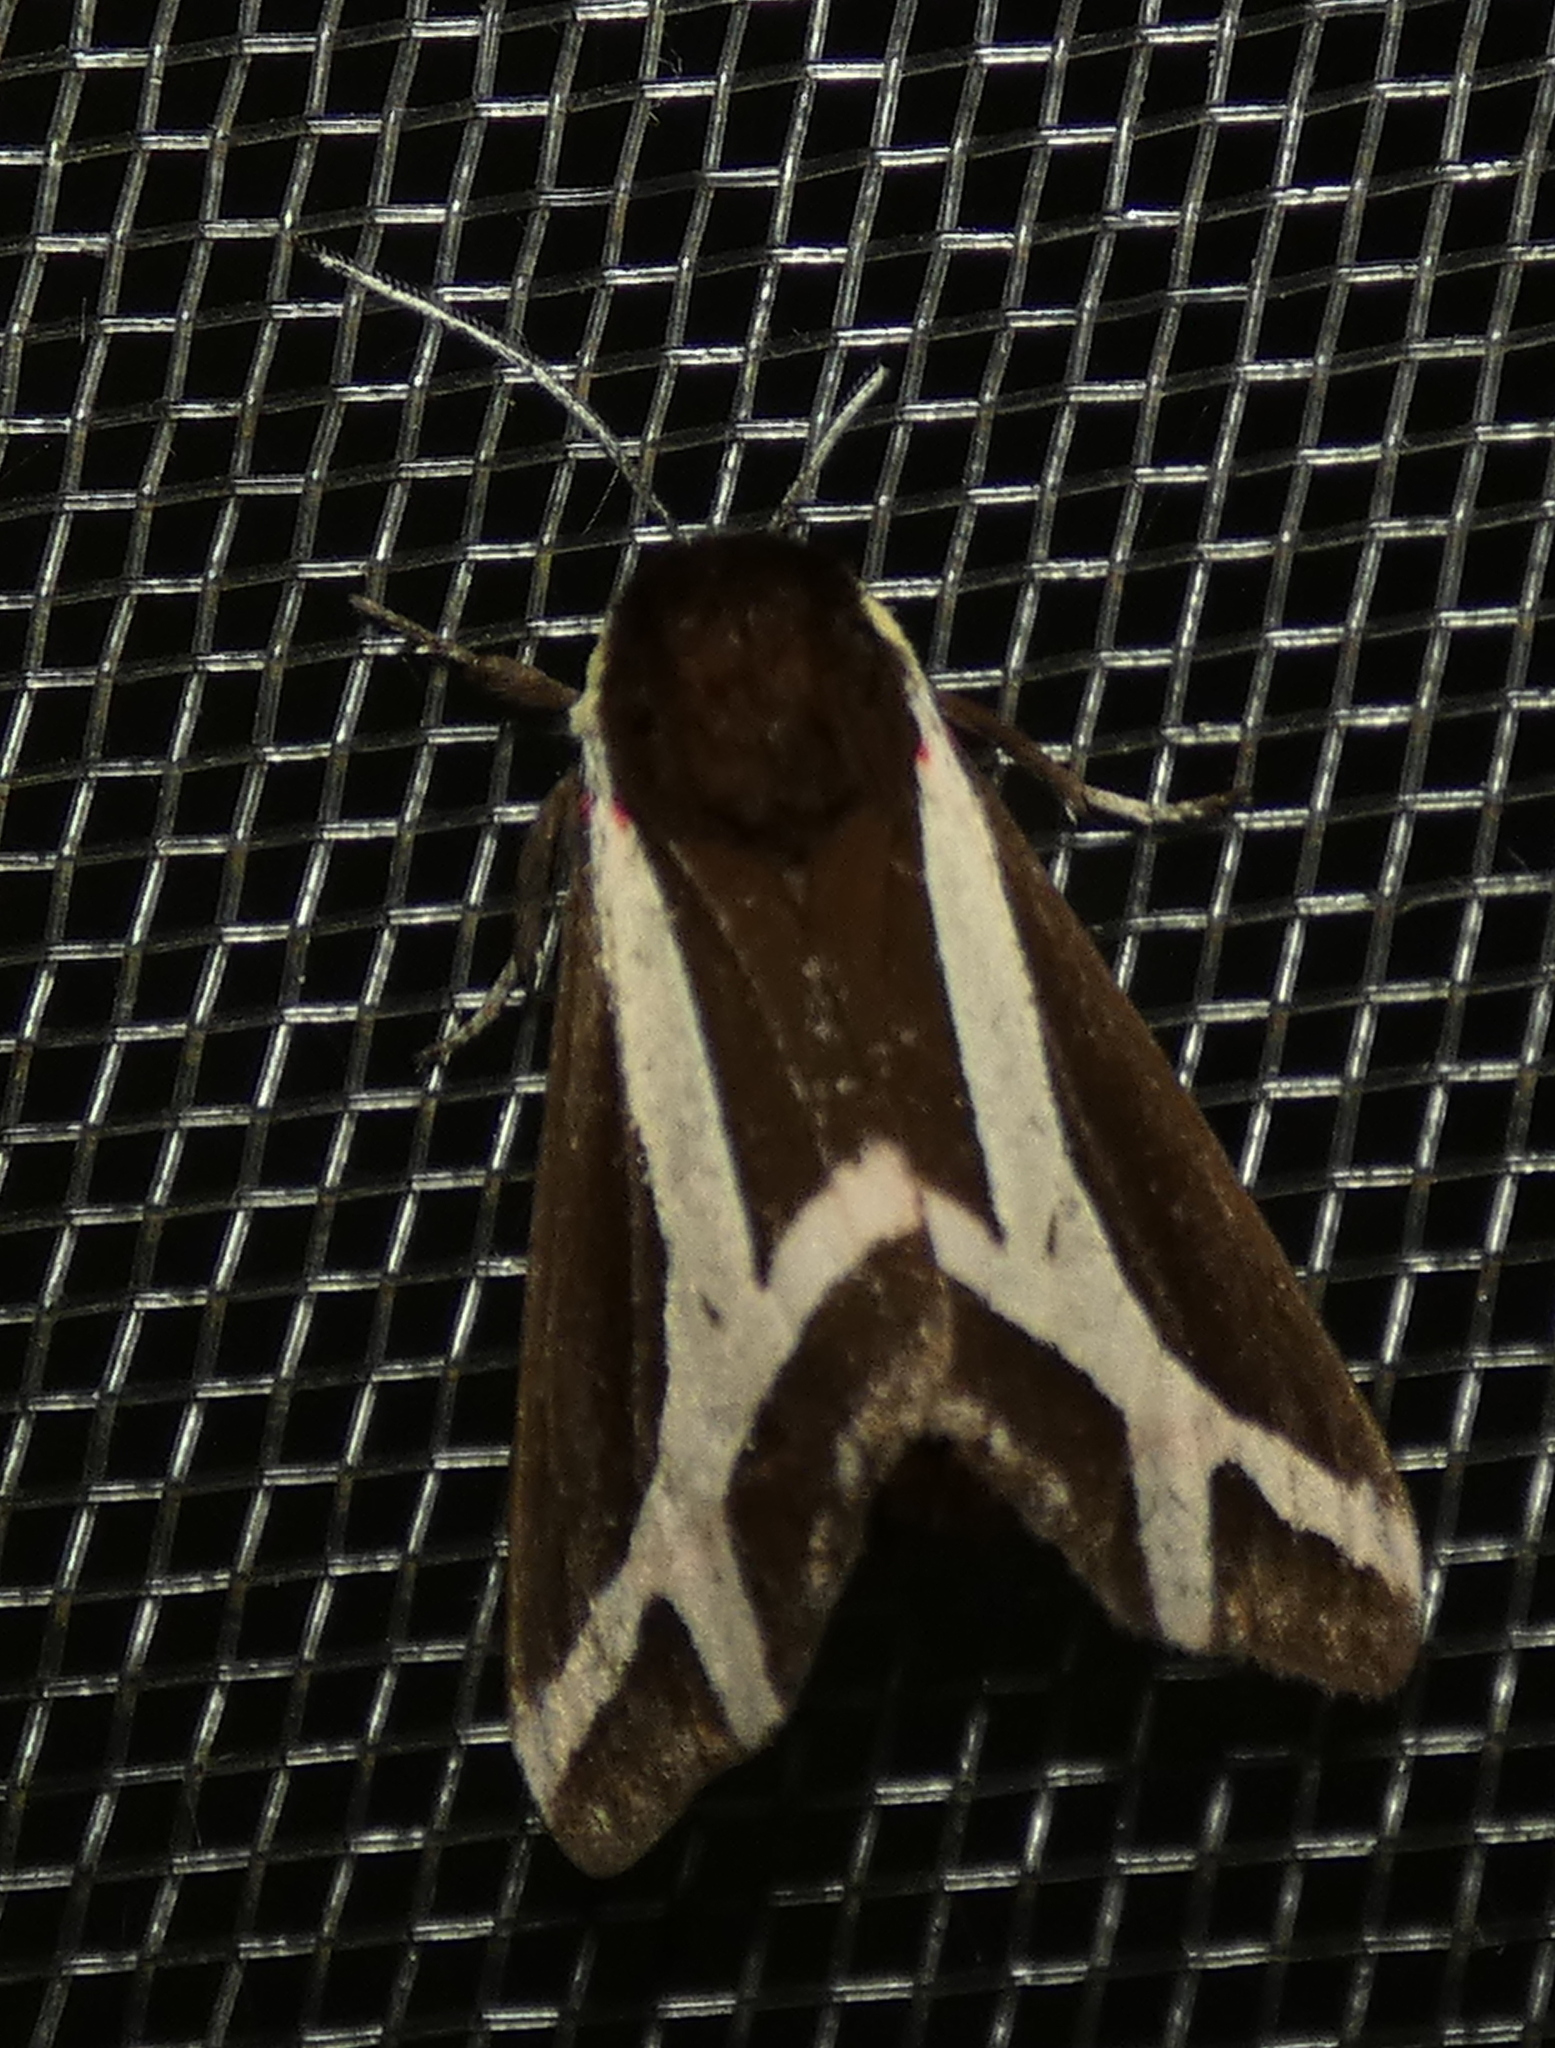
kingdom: Animalia
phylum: Arthropoda
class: Insecta
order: Lepidoptera
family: Erebidae
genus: Dysschema
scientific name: Dysschema sacrifica
